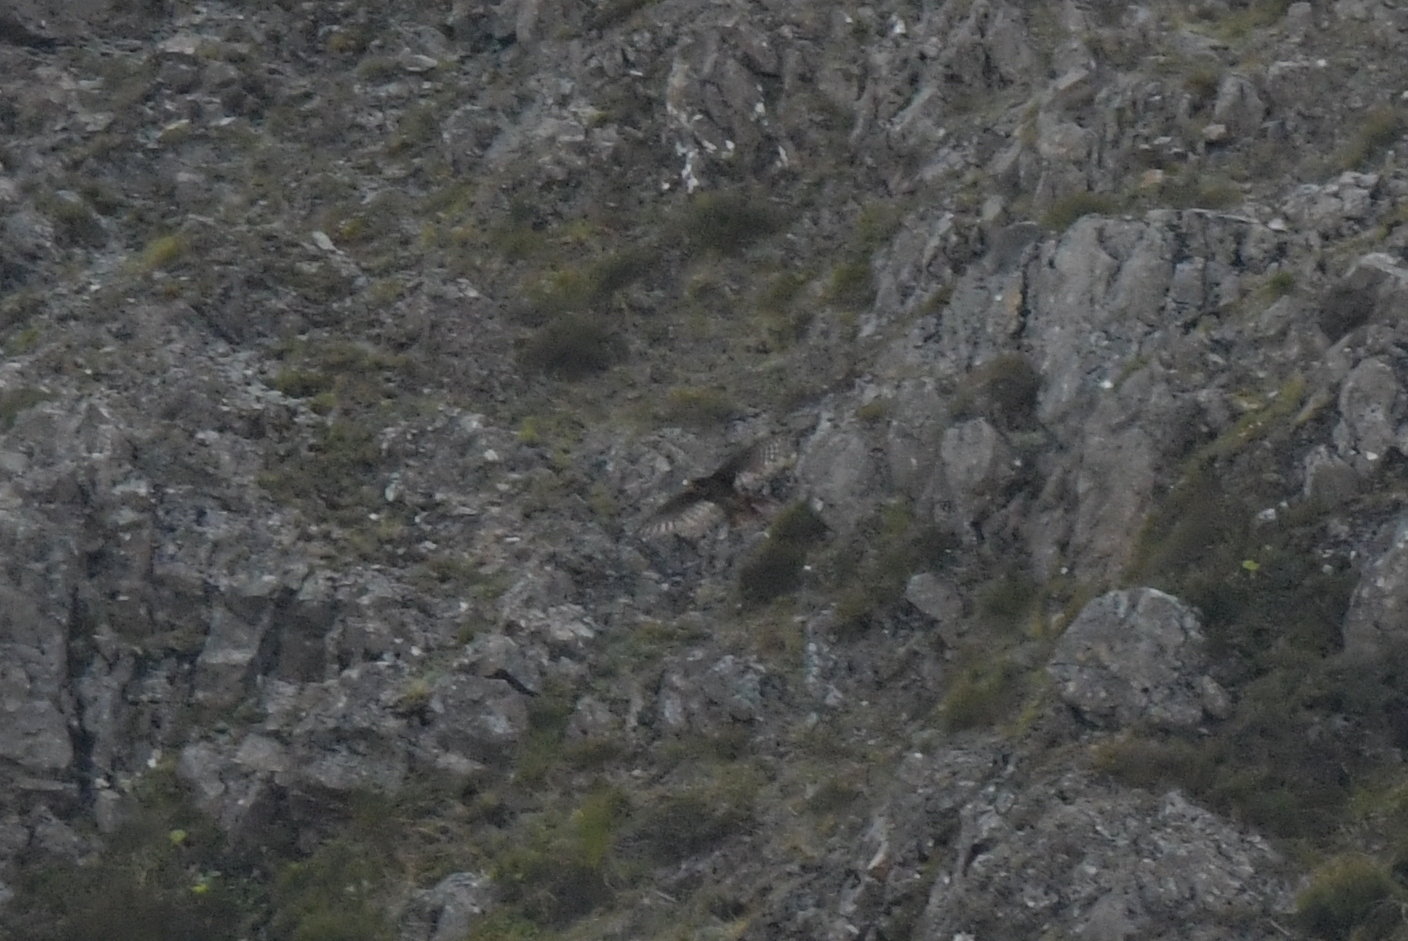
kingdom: Animalia
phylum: Chordata
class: Aves
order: Falconiformes
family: Falconidae
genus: Falco
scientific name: Falco novaeseelandiae
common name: New zealand falcon
